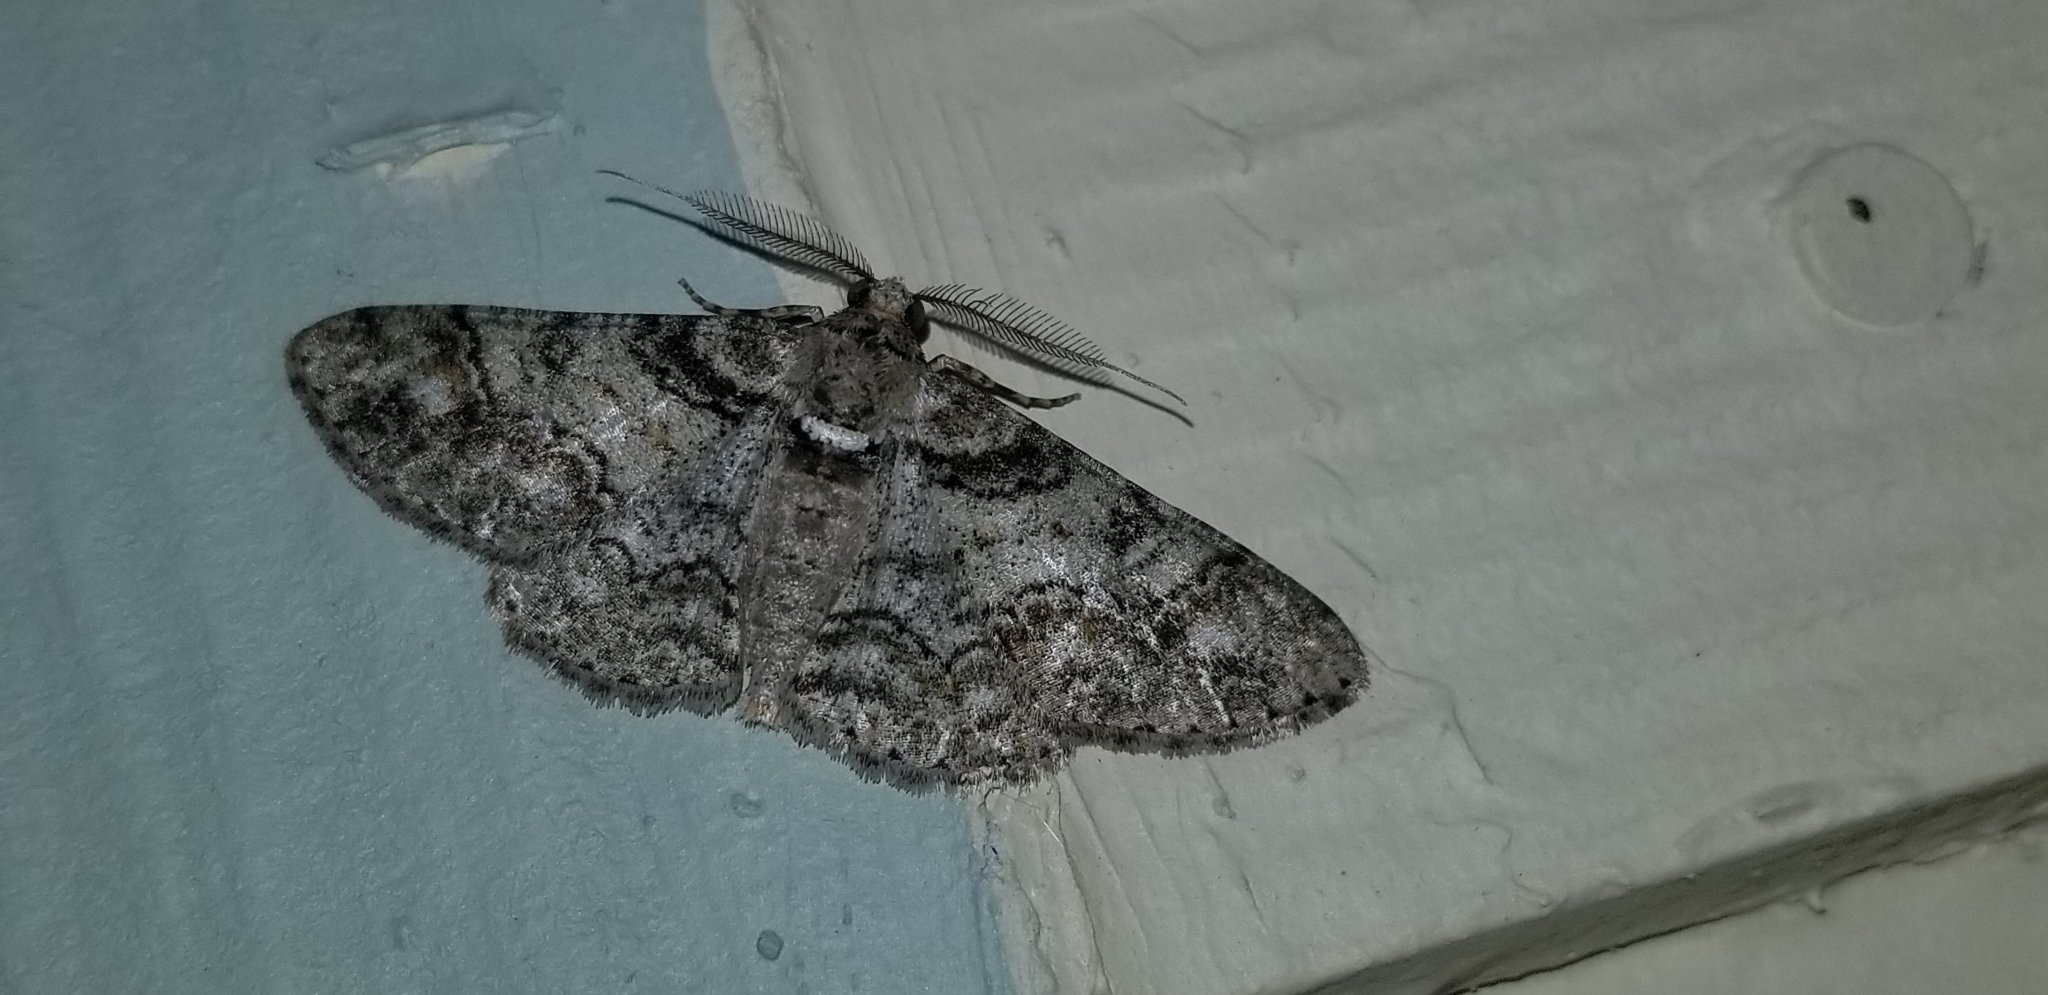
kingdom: Animalia
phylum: Arthropoda
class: Insecta
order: Lepidoptera
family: Geometridae
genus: Cleora
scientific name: Cleora sublunaria
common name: Double-lined gray
